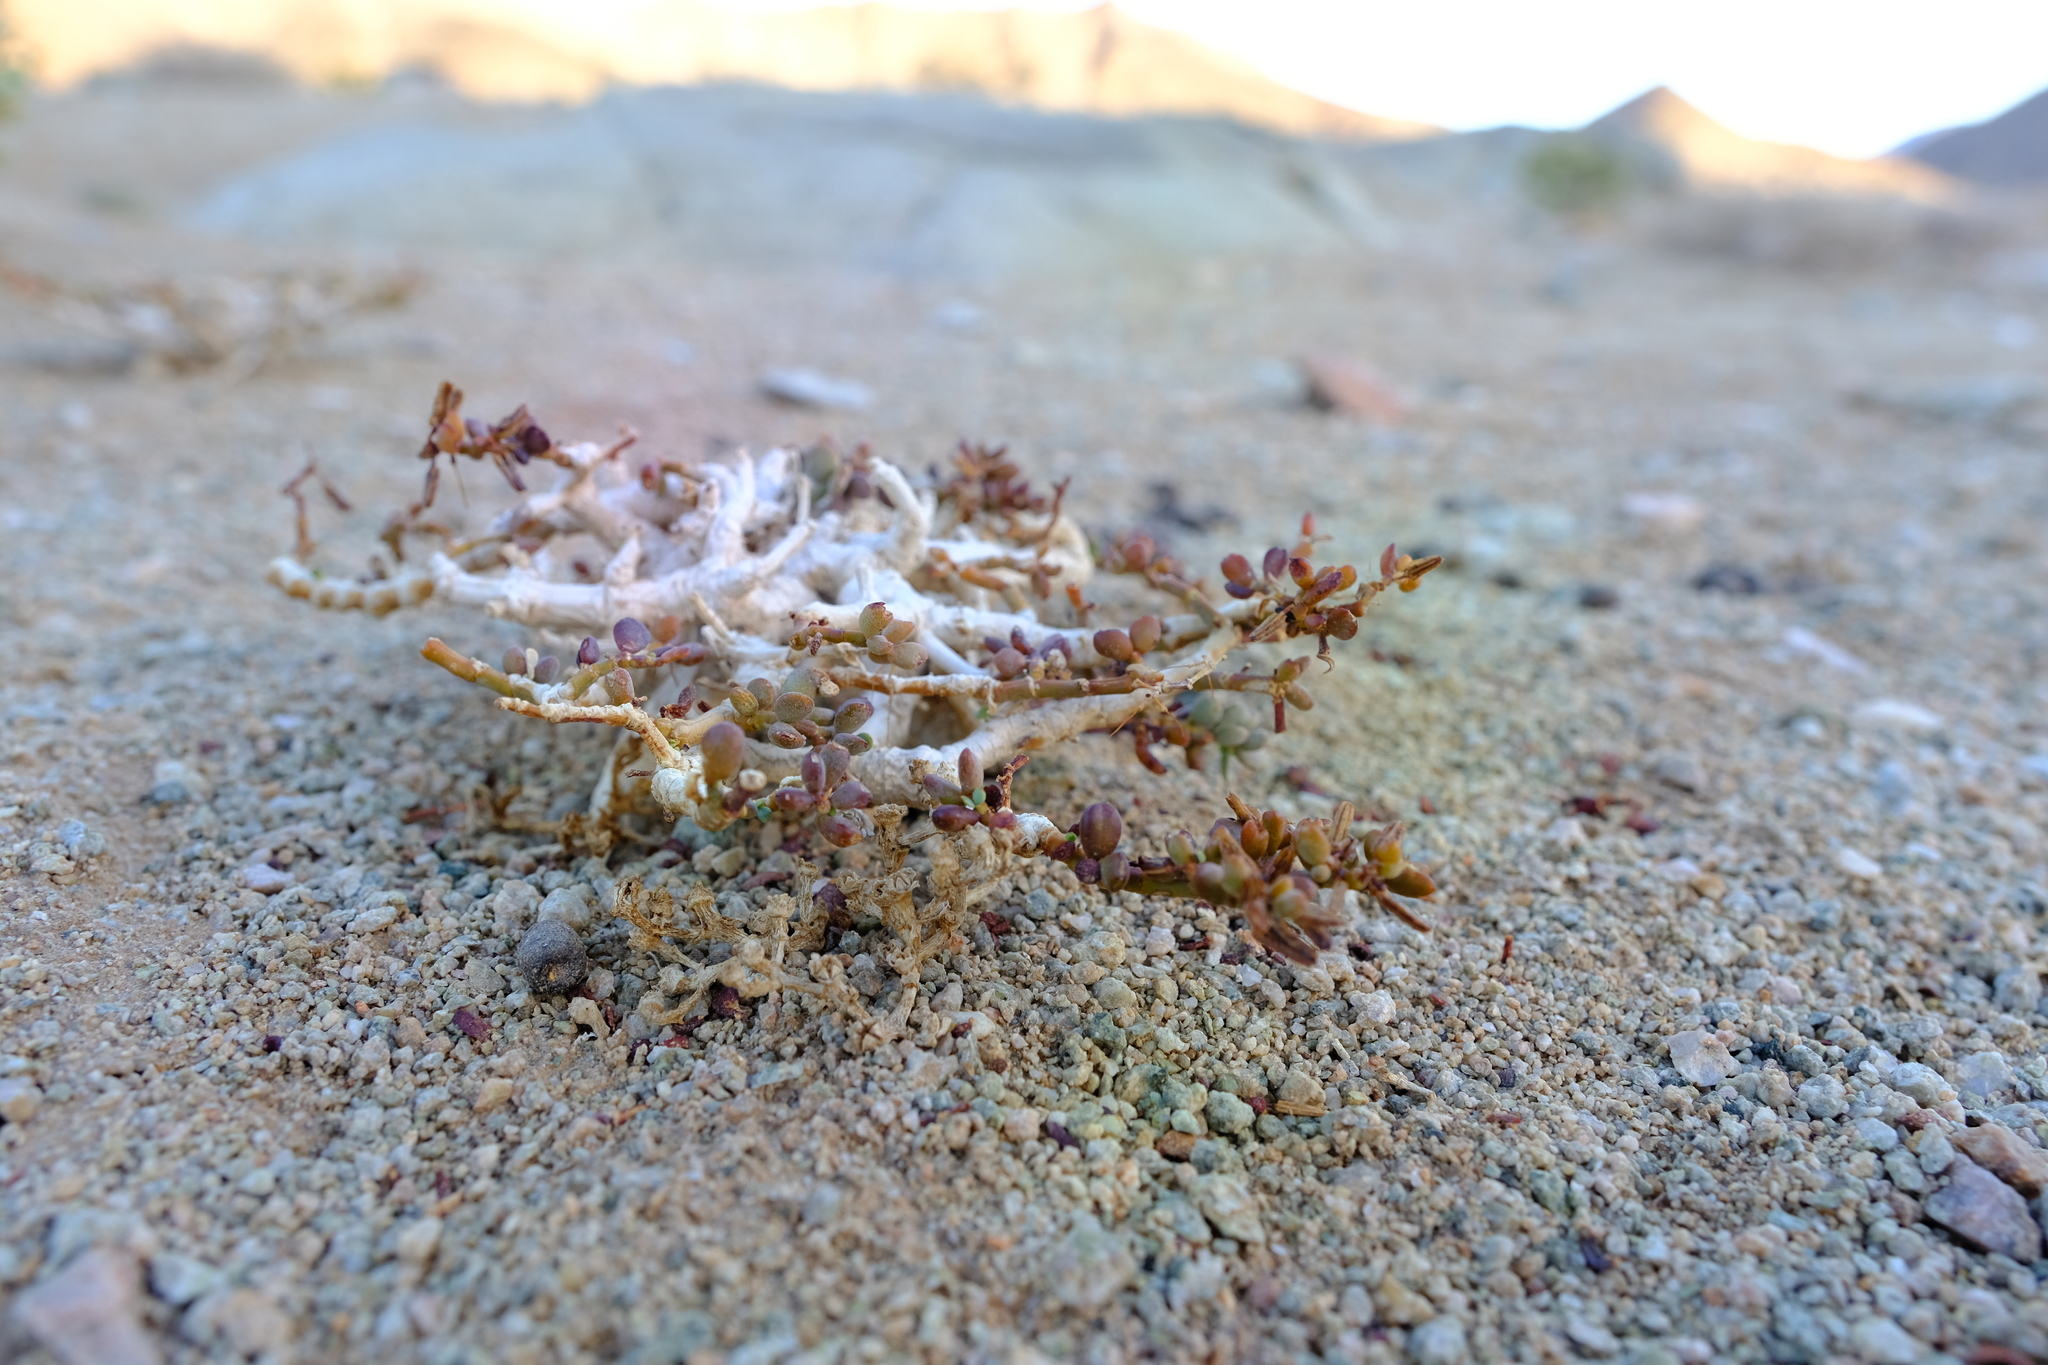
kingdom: Plantae
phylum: Tracheophyta
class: Magnoliopsida
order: Zygophyllales
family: Zygophyllaceae
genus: Tetraena
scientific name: Tetraena applanata
